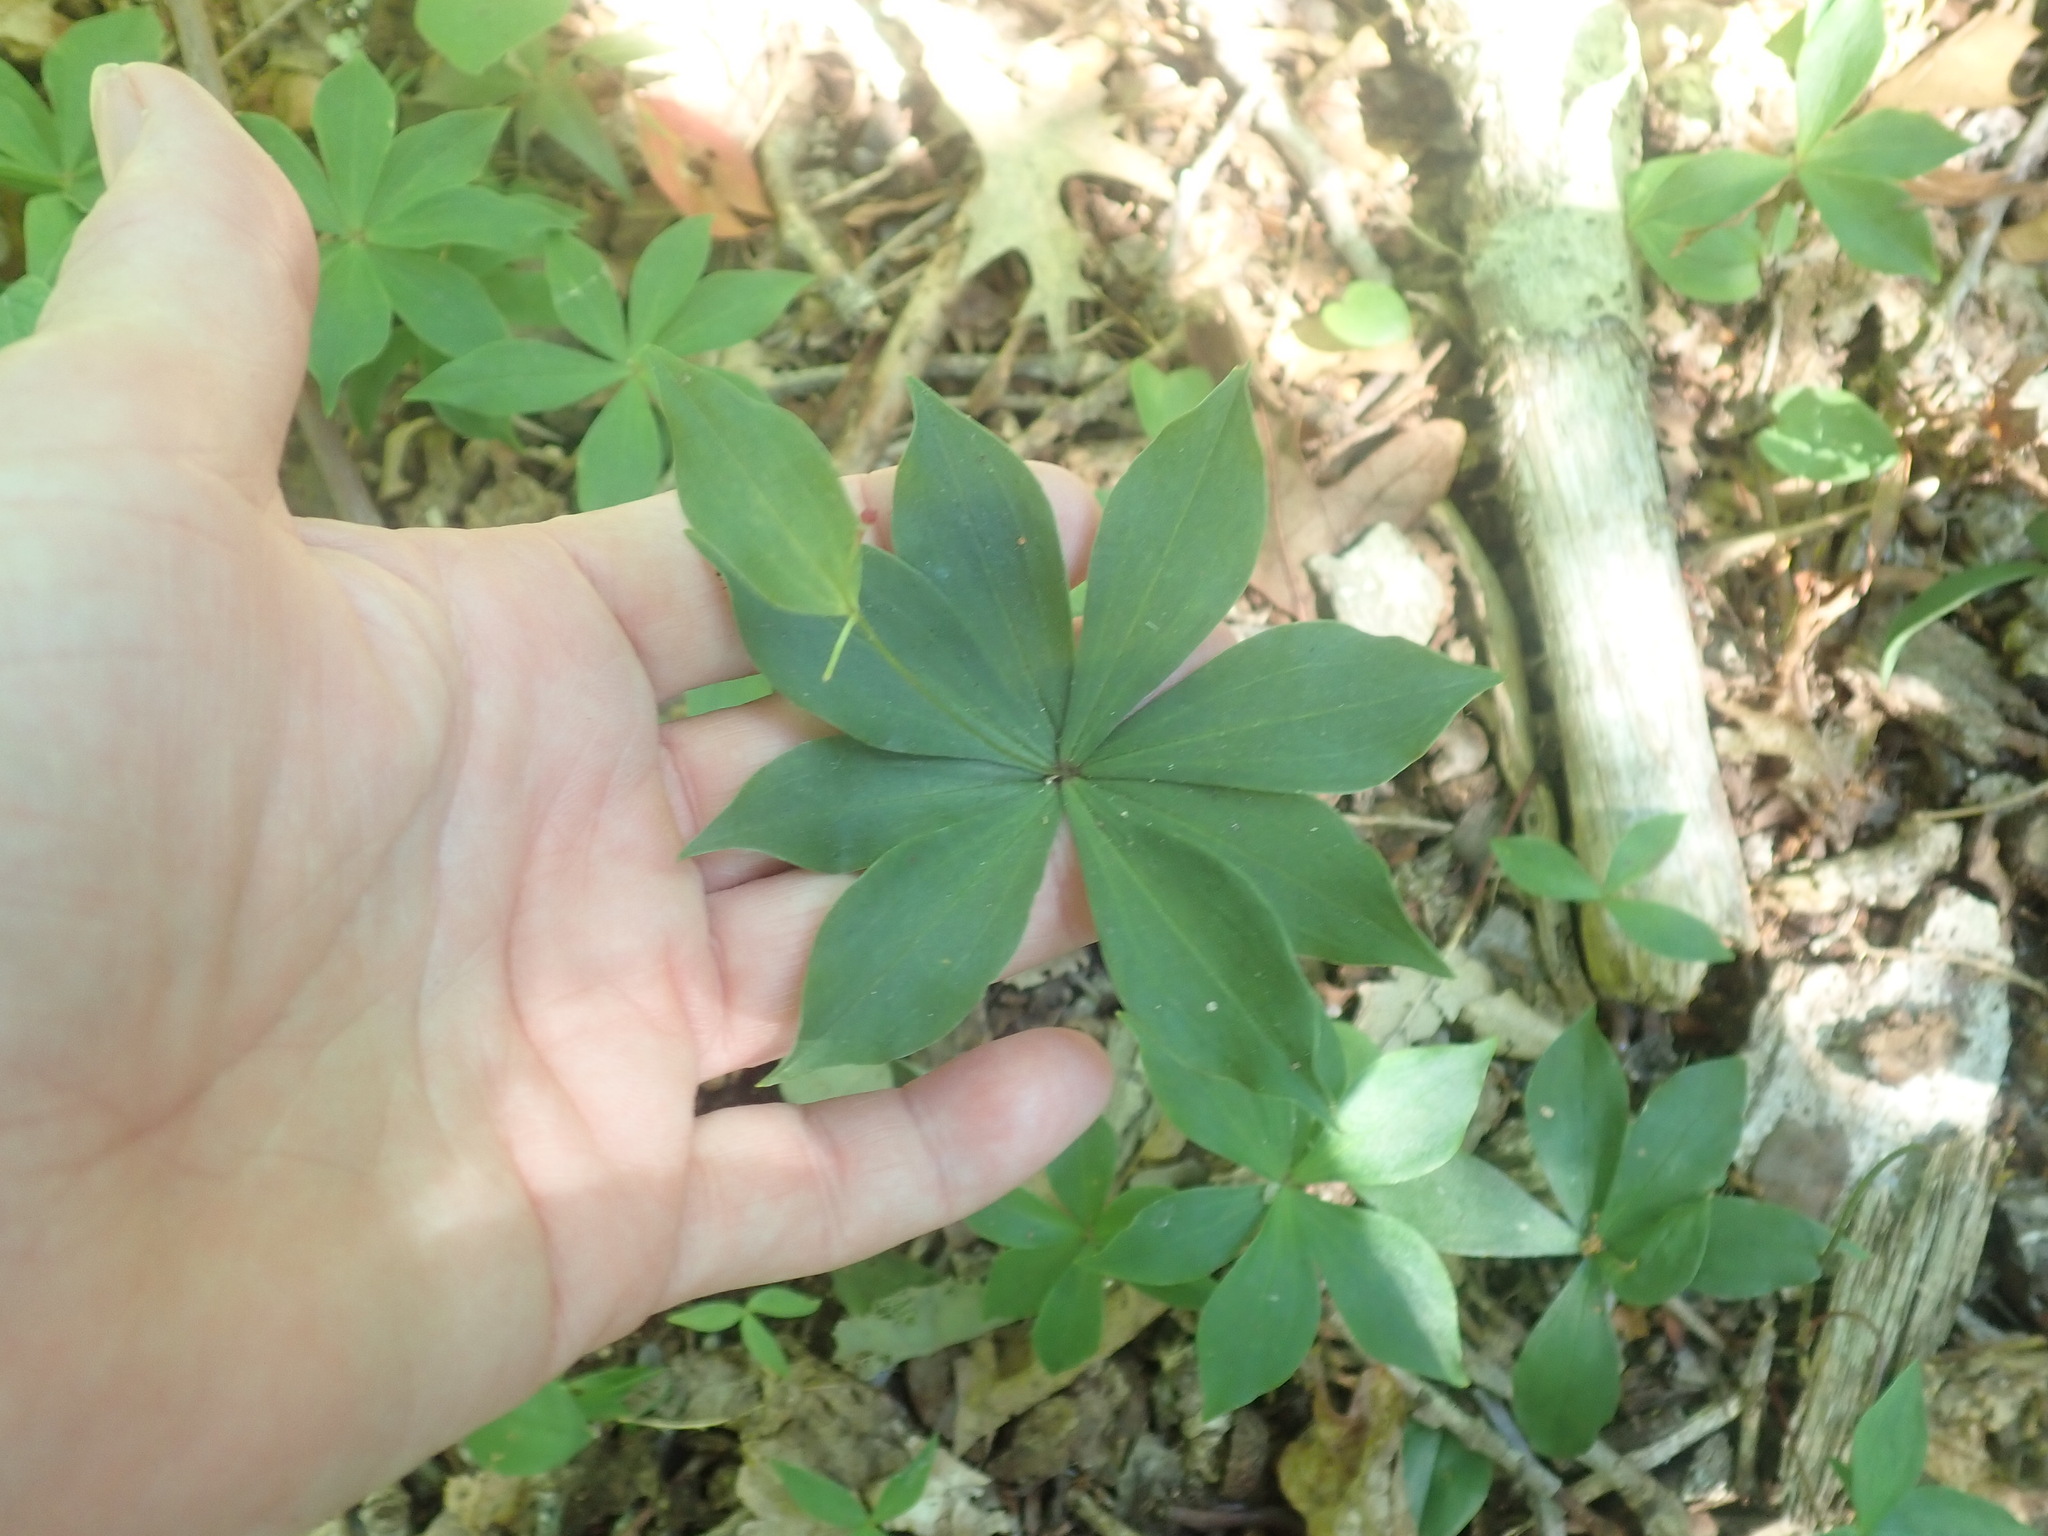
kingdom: Plantae
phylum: Tracheophyta
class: Liliopsida
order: Liliales
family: Liliaceae
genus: Medeola
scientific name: Medeola virginiana
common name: Indian cucumber-root
